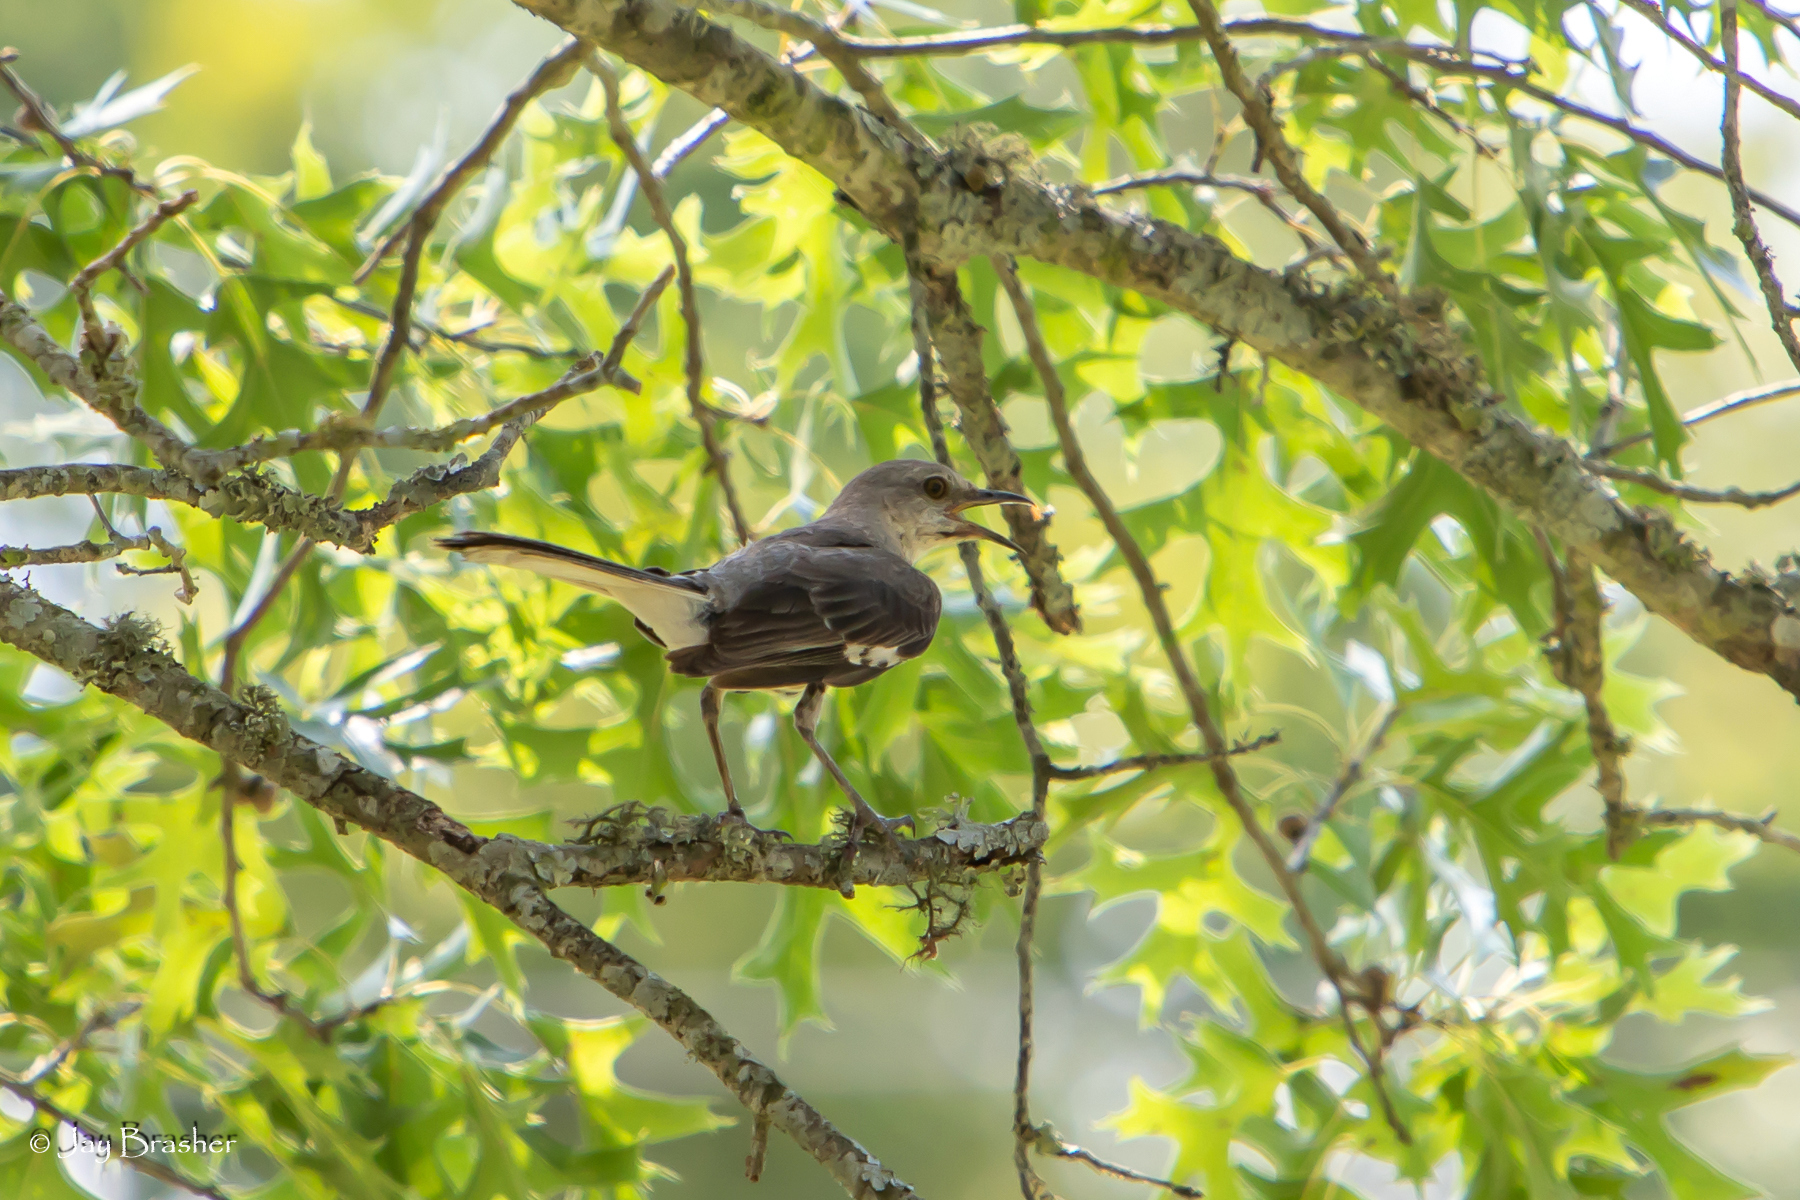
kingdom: Animalia
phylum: Chordata
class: Aves
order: Passeriformes
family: Mimidae
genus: Mimus
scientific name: Mimus polyglottos
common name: Northern mockingbird
